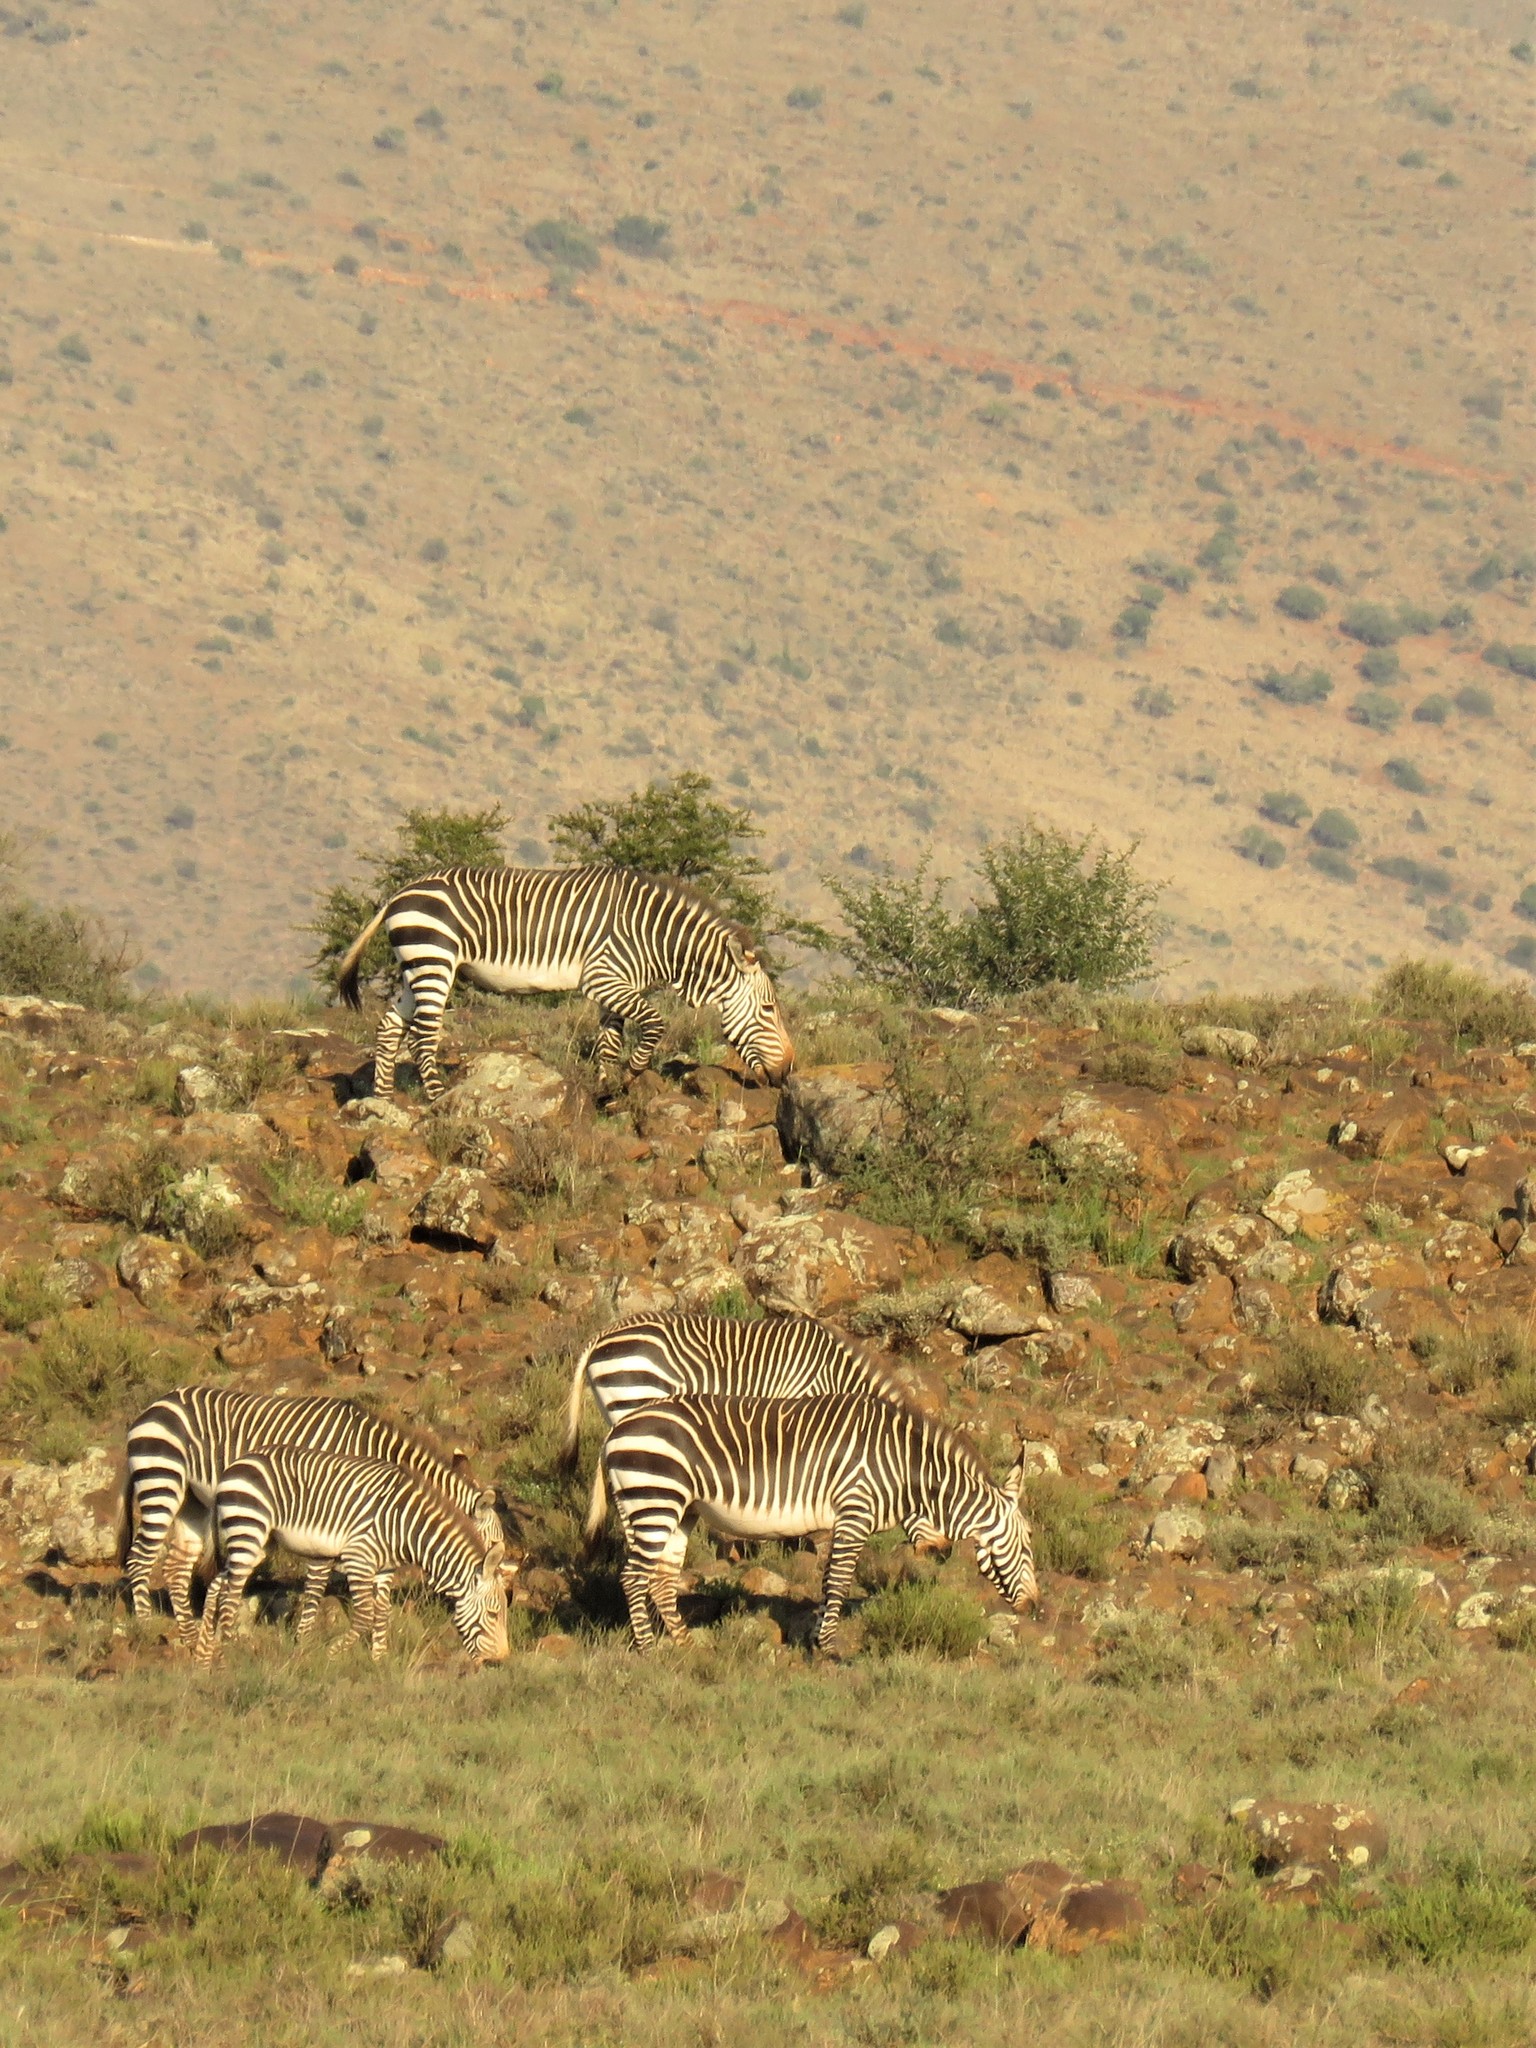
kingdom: Animalia
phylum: Chordata
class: Mammalia
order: Perissodactyla
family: Equidae
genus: Equus
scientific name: Equus zebra
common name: Mountain zebra
